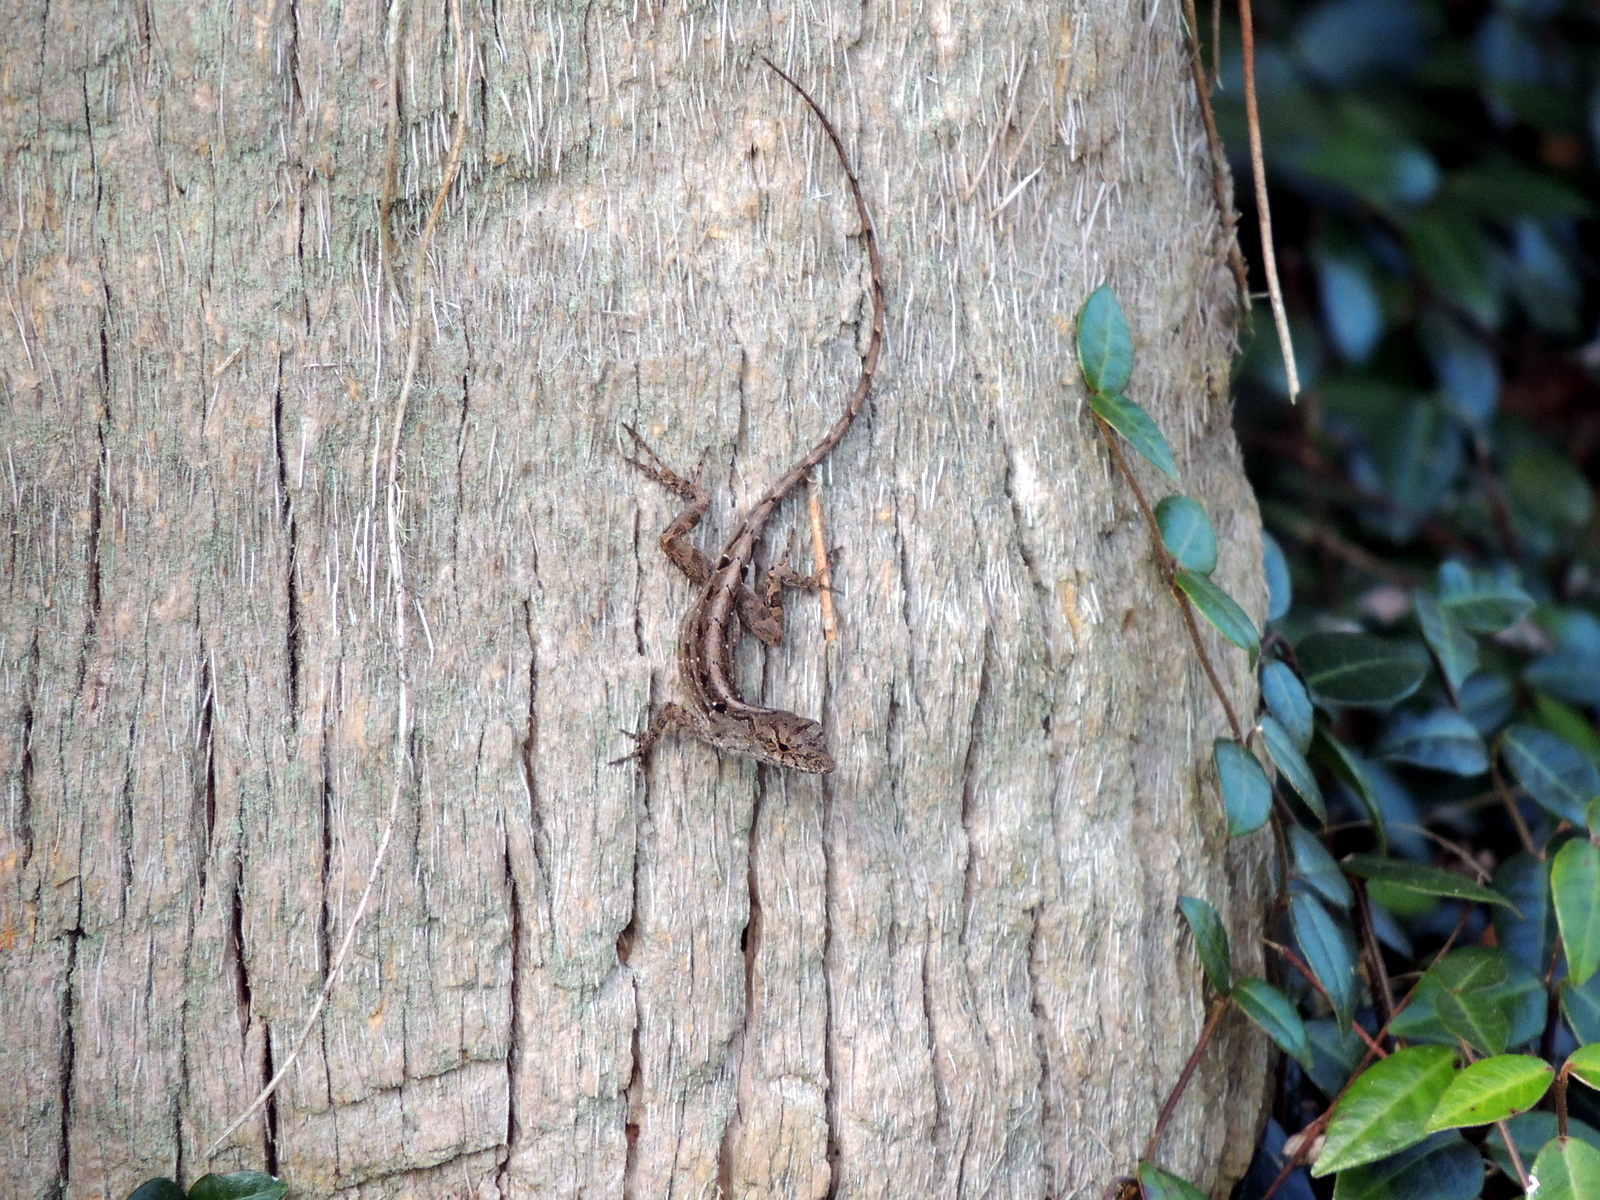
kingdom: Animalia
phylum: Chordata
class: Squamata
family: Dactyloidae
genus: Anolis
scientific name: Anolis sagrei
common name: Brown anole
